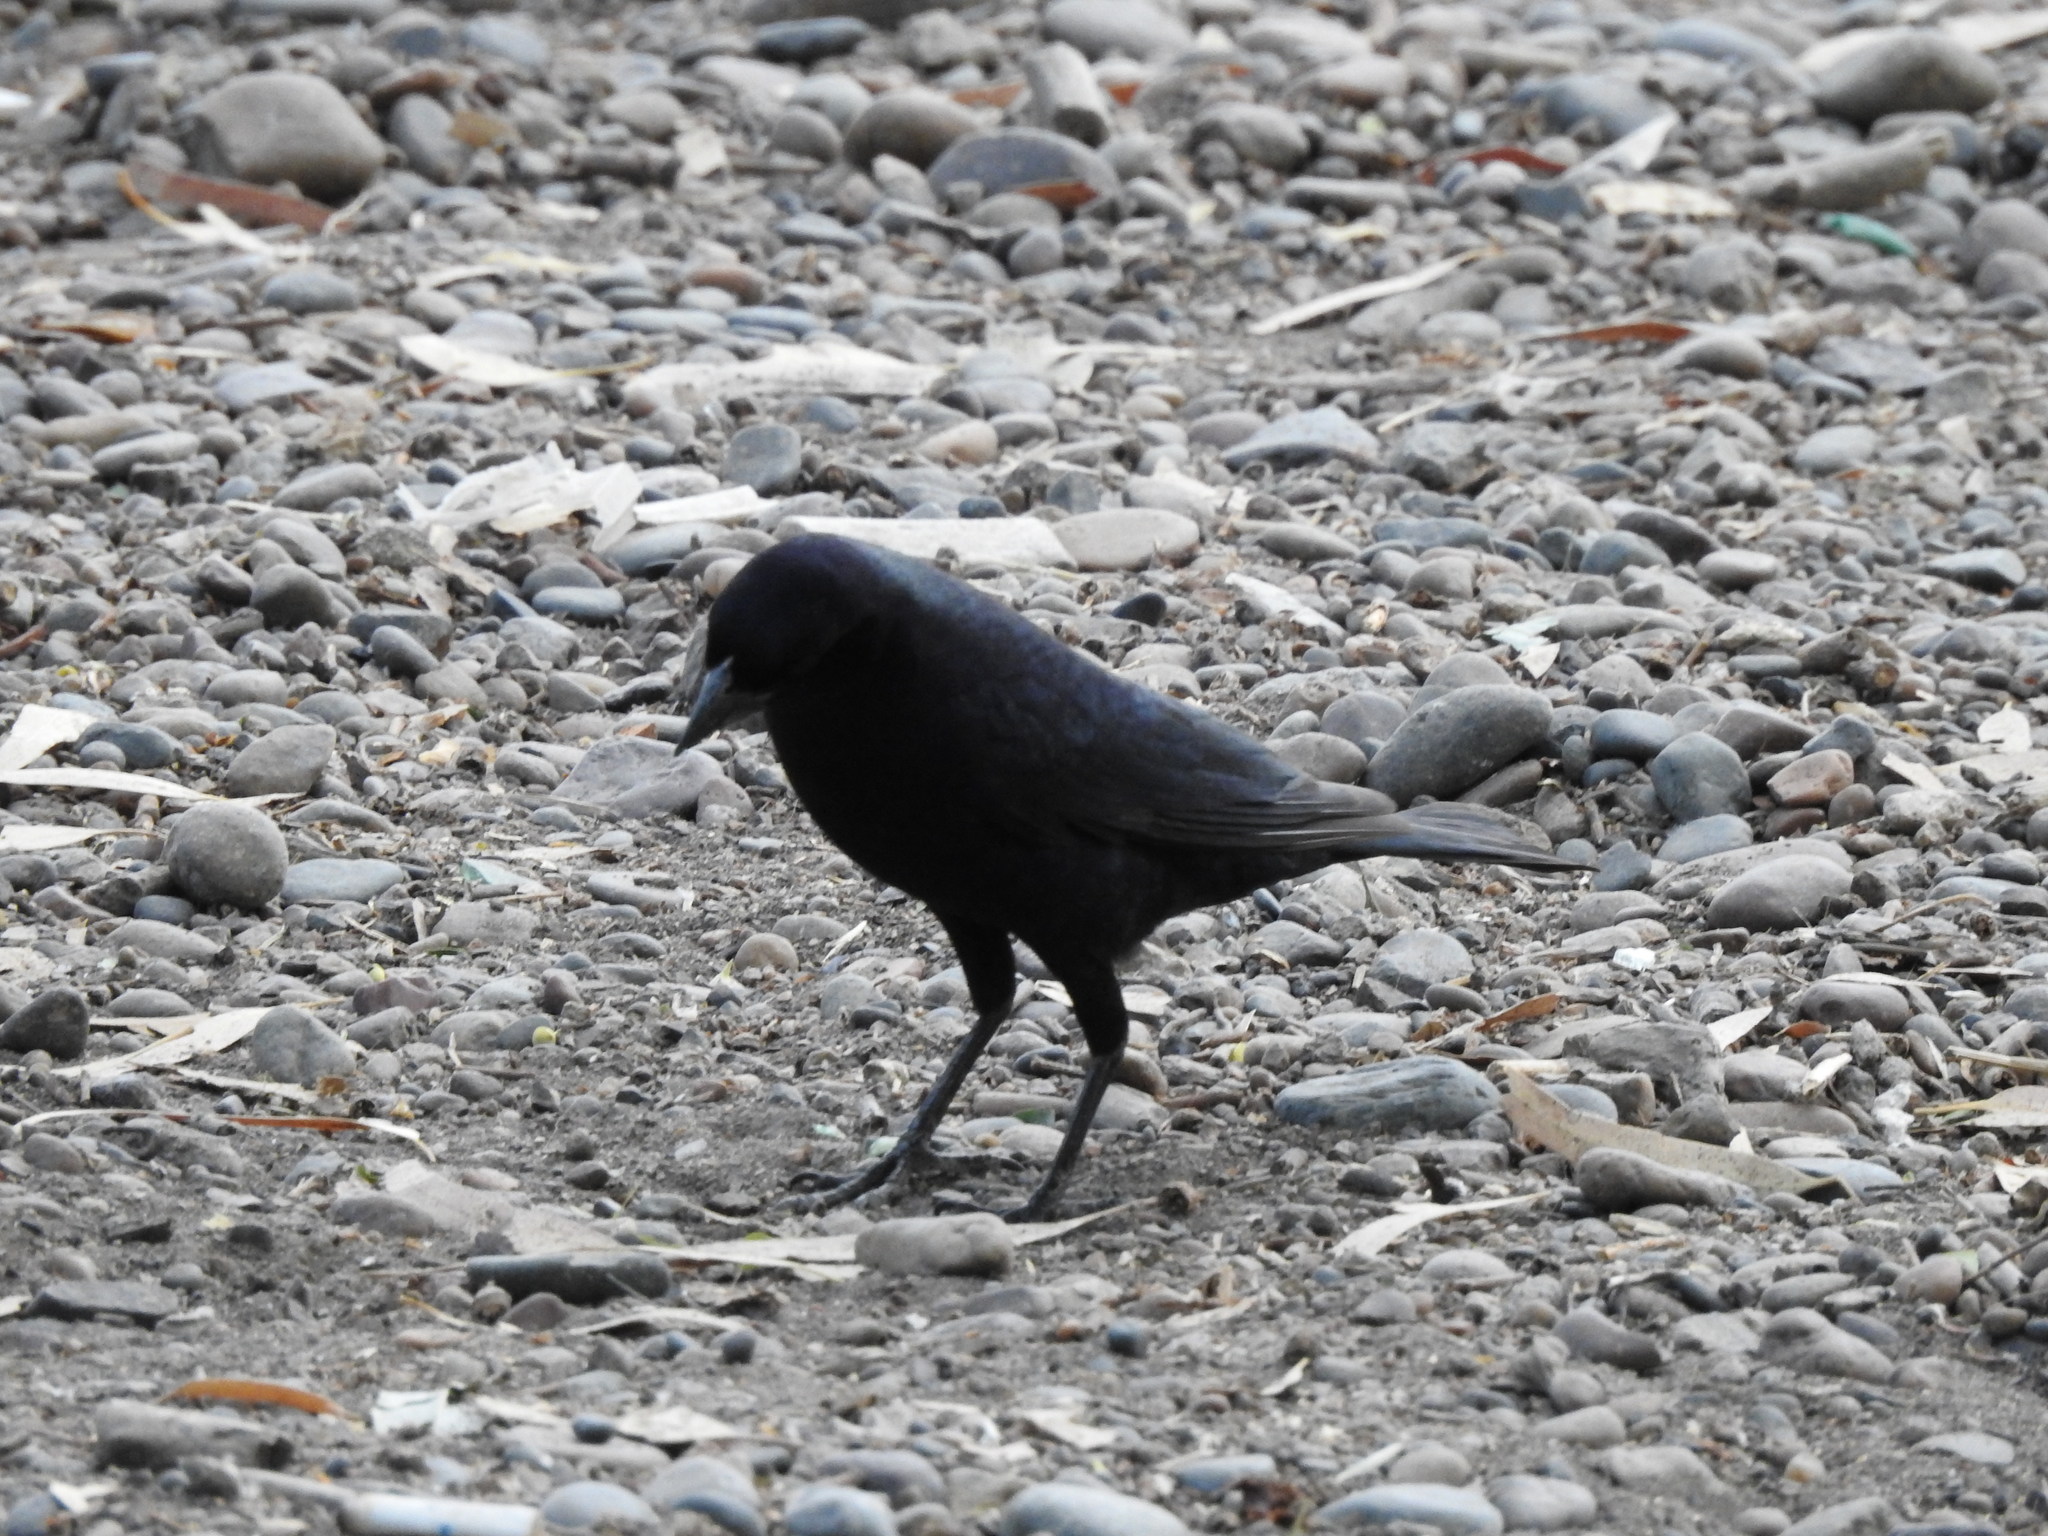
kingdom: Animalia
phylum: Chordata
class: Aves
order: Passeriformes
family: Icteridae
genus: Molothrus
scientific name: Molothrus bonariensis
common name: Shiny cowbird
